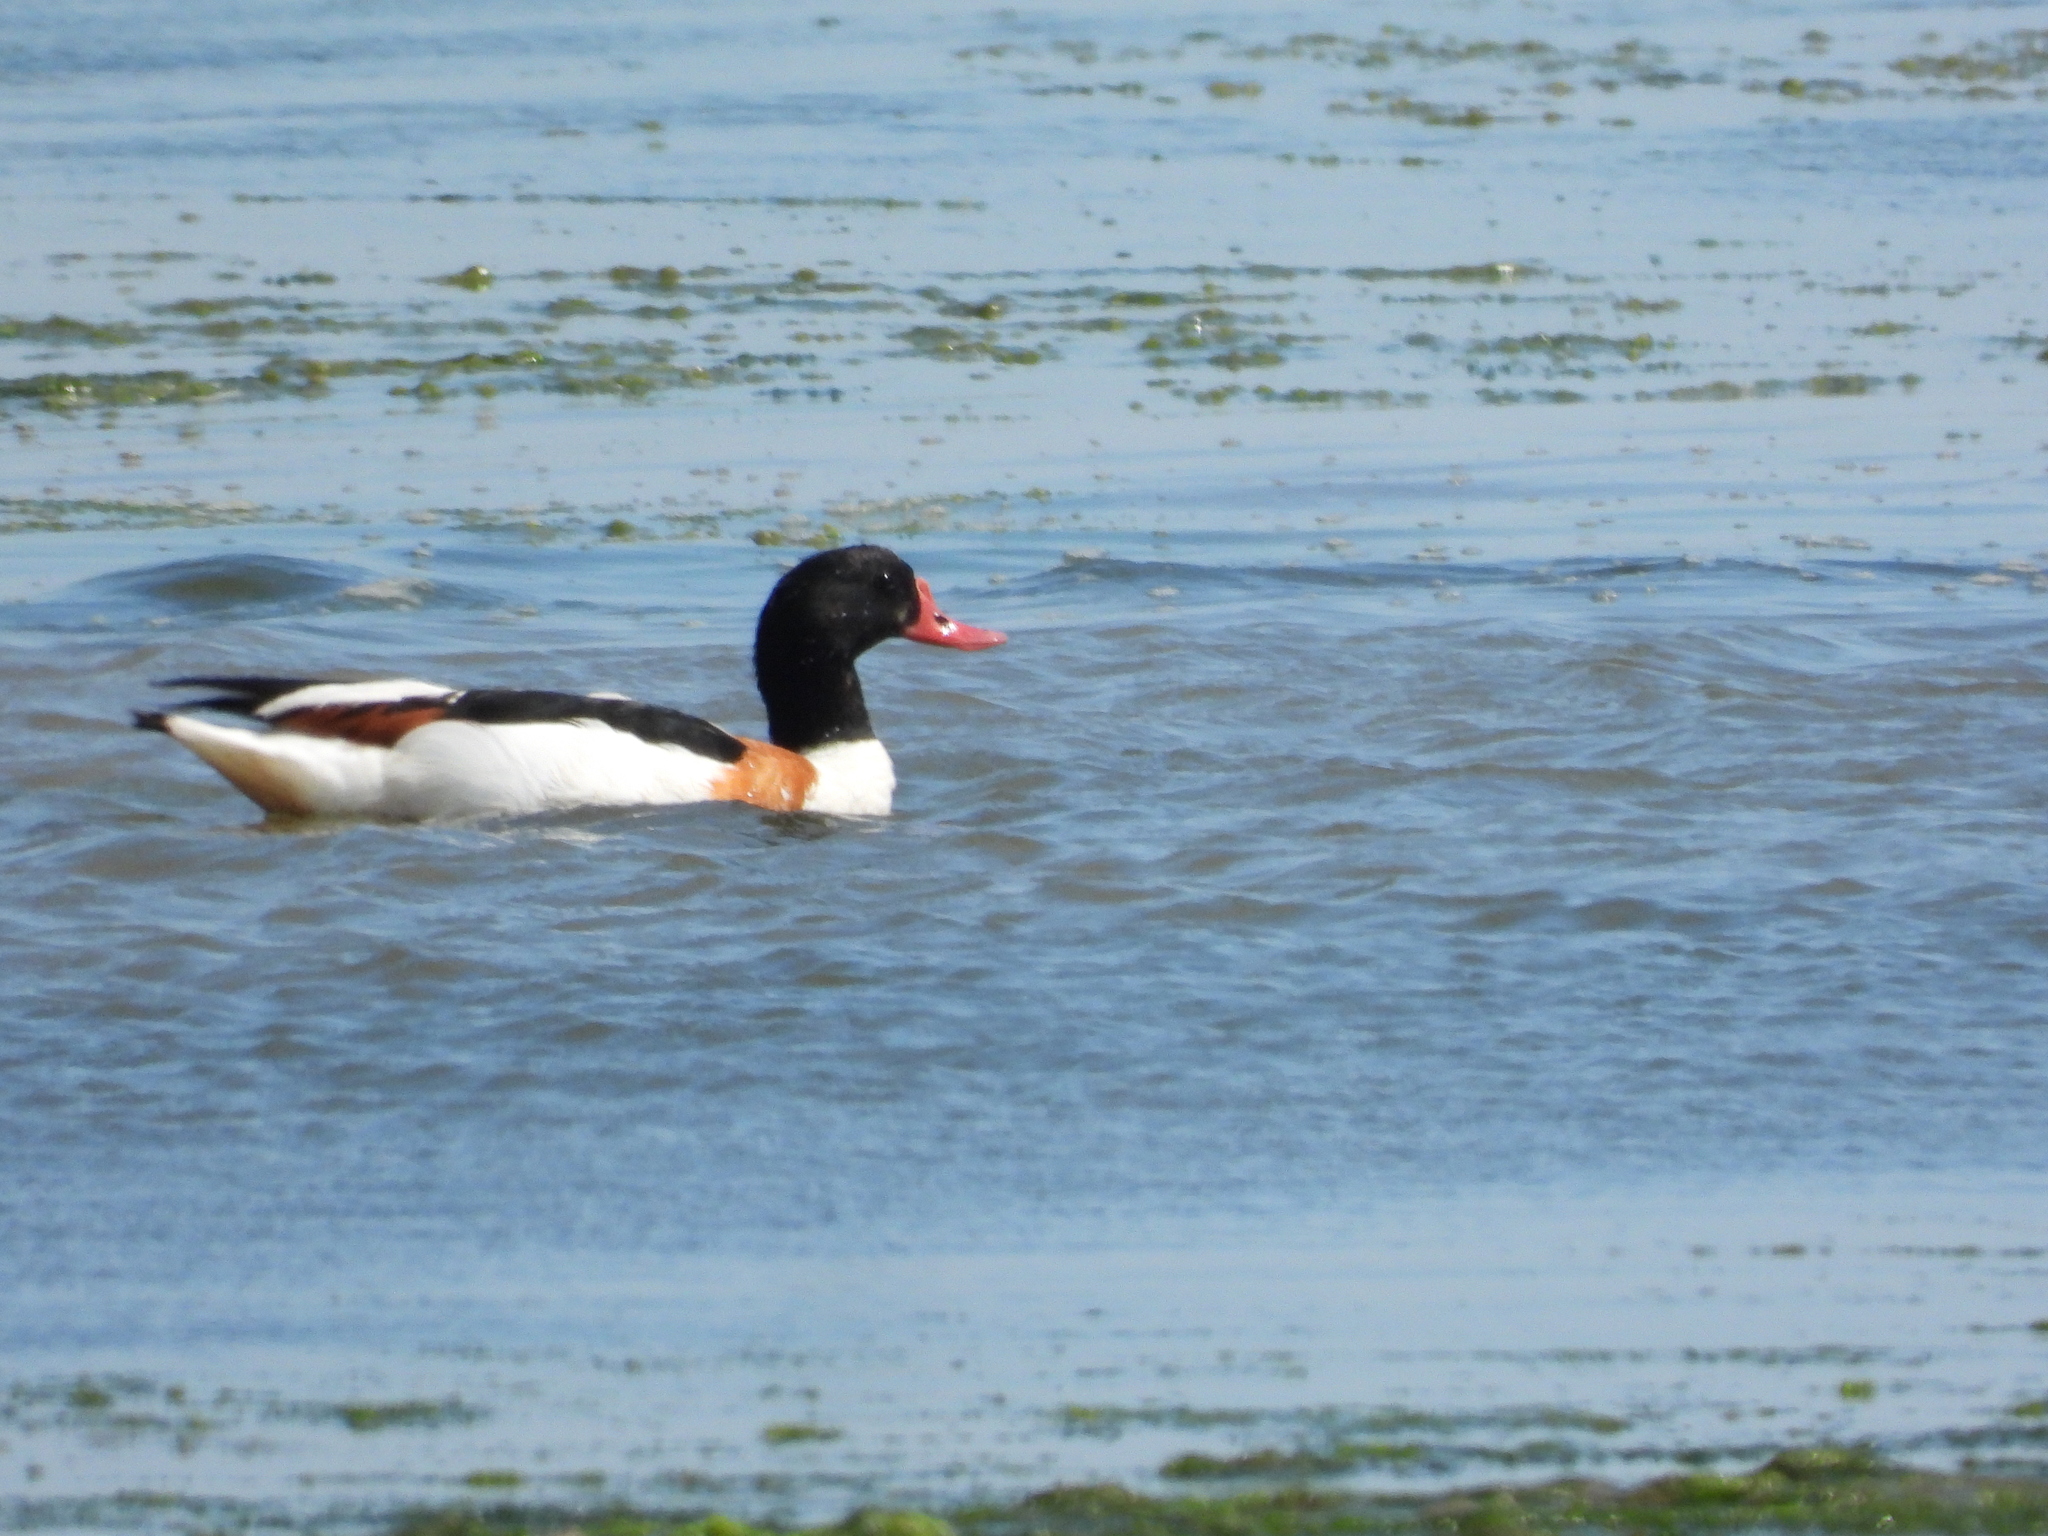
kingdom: Animalia
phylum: Chordata
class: Aves
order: Anseriformes
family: Anatidae
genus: Tadorna
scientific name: Tadorna tadorna
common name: Common shelduck
